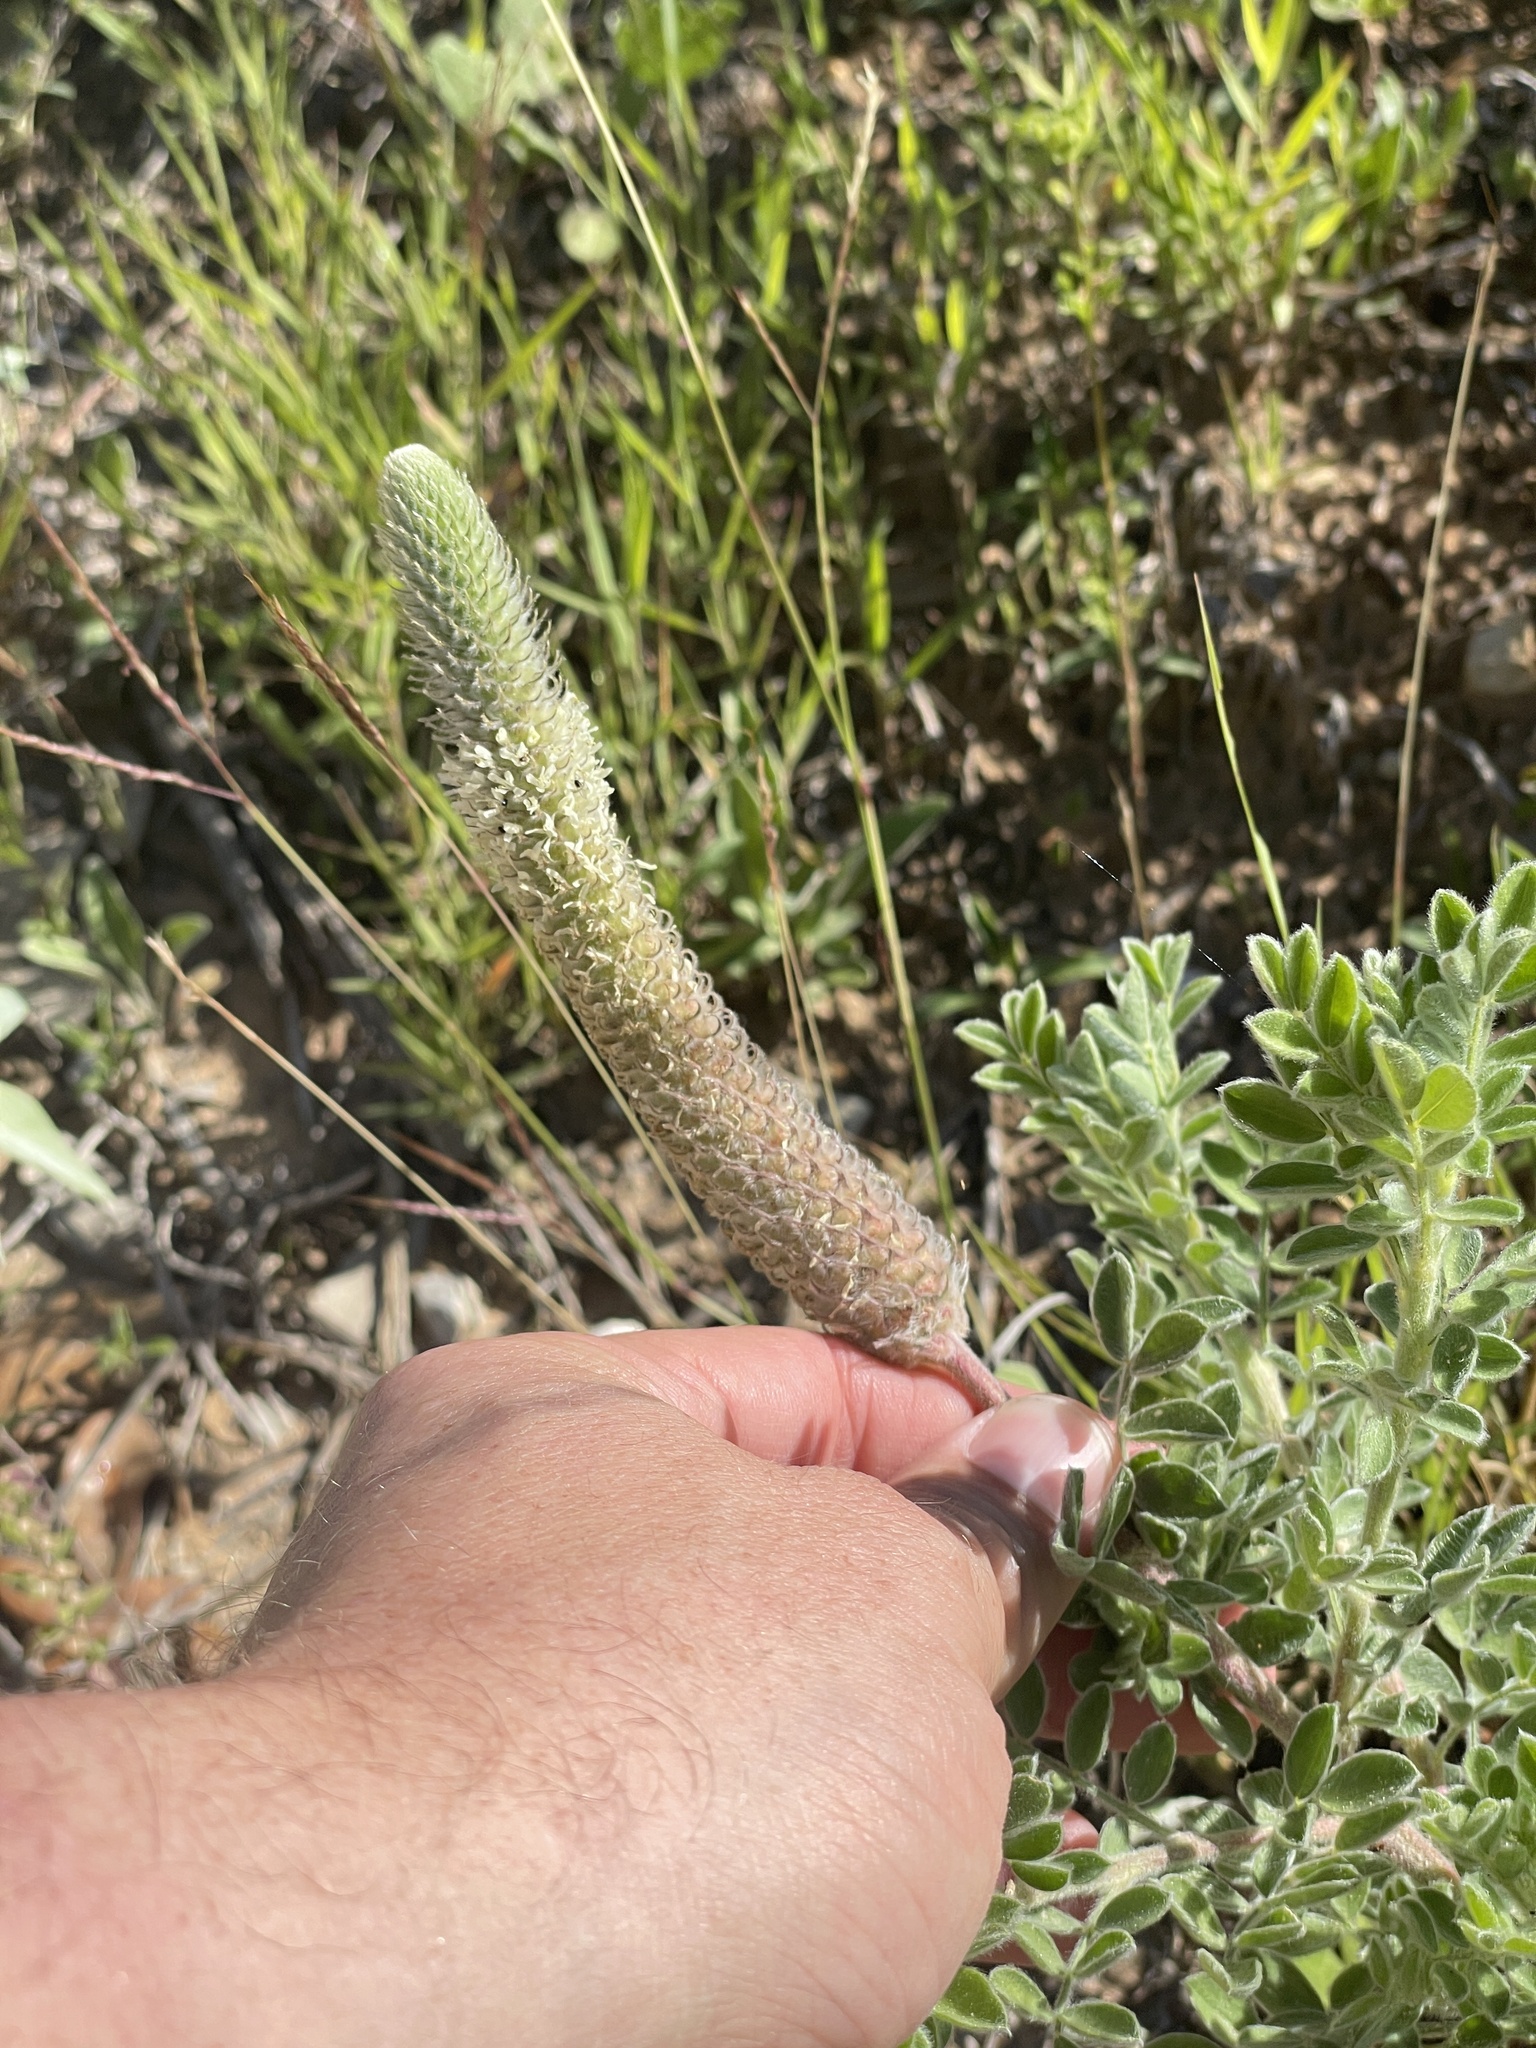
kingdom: Plantae
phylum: Tracheophyta
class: Magnoliopsida
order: Fabales
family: Fabaceae
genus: Dalea
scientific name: Dalea obovata
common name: Pussyfoot
